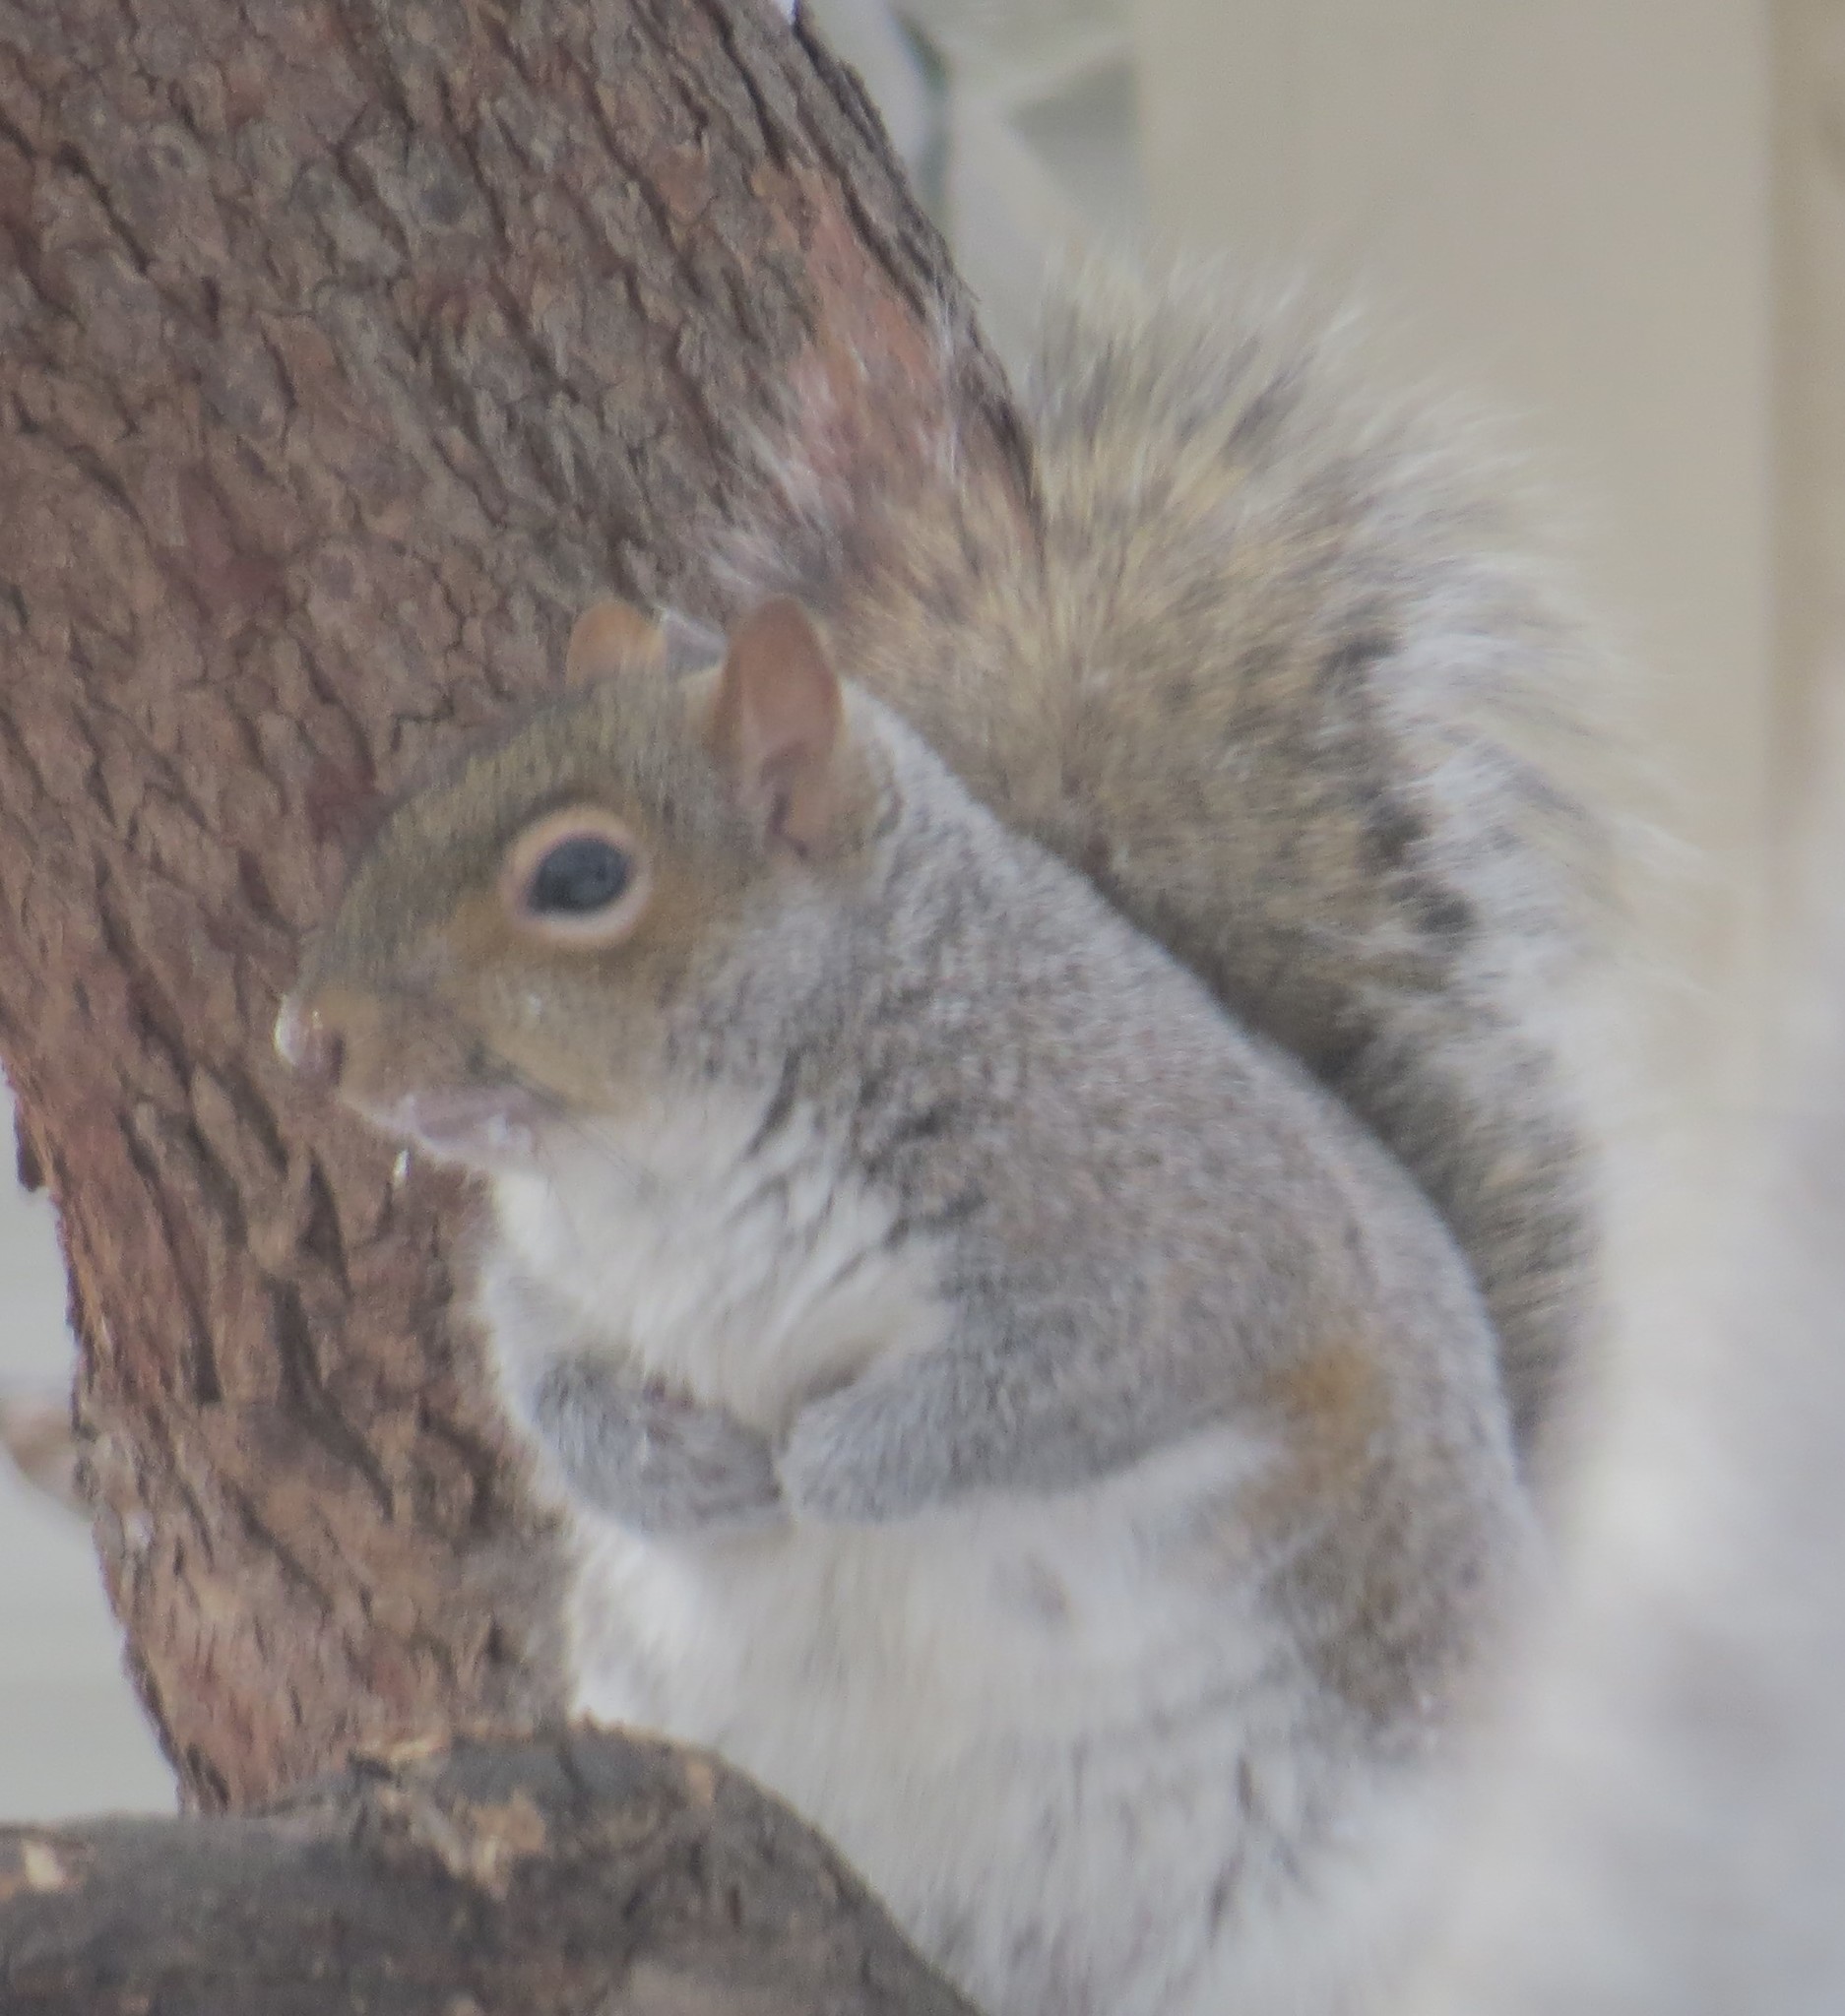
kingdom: Animalia
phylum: Chordata
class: Mammalia
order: Rodentia
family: Sciuridae
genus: Sciurus
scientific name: Sciurus carolinensis
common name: Eastern gray squirrel
